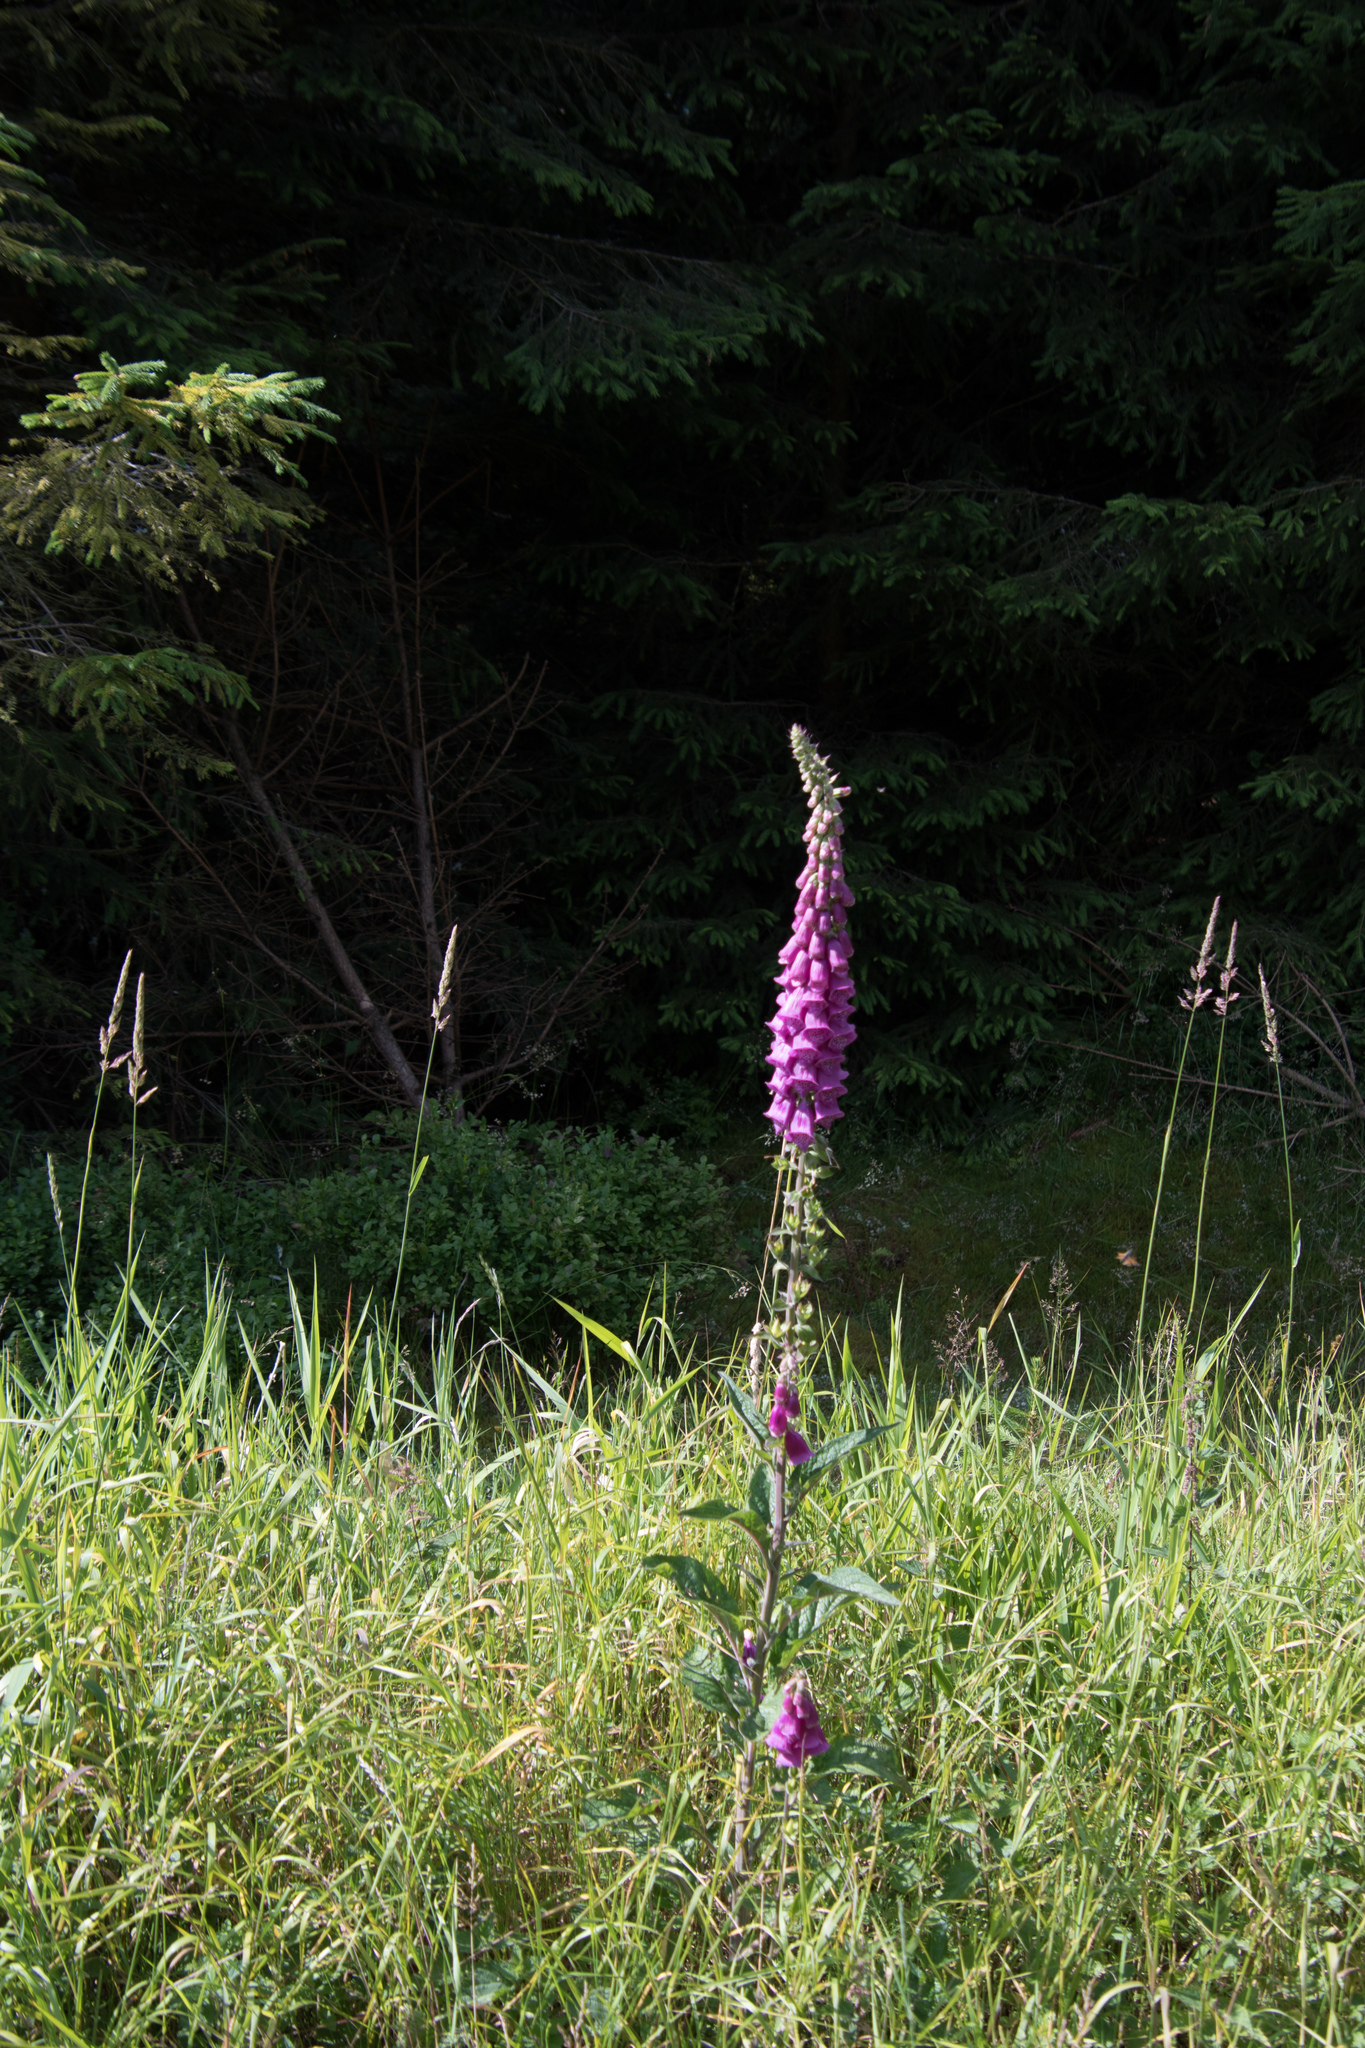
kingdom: Plantae
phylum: Tracheophyta
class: Magnoliopsida
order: Lamiales
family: Plantaginaceae
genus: Digitalis
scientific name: Digitalis purpurea
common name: Foxglove
